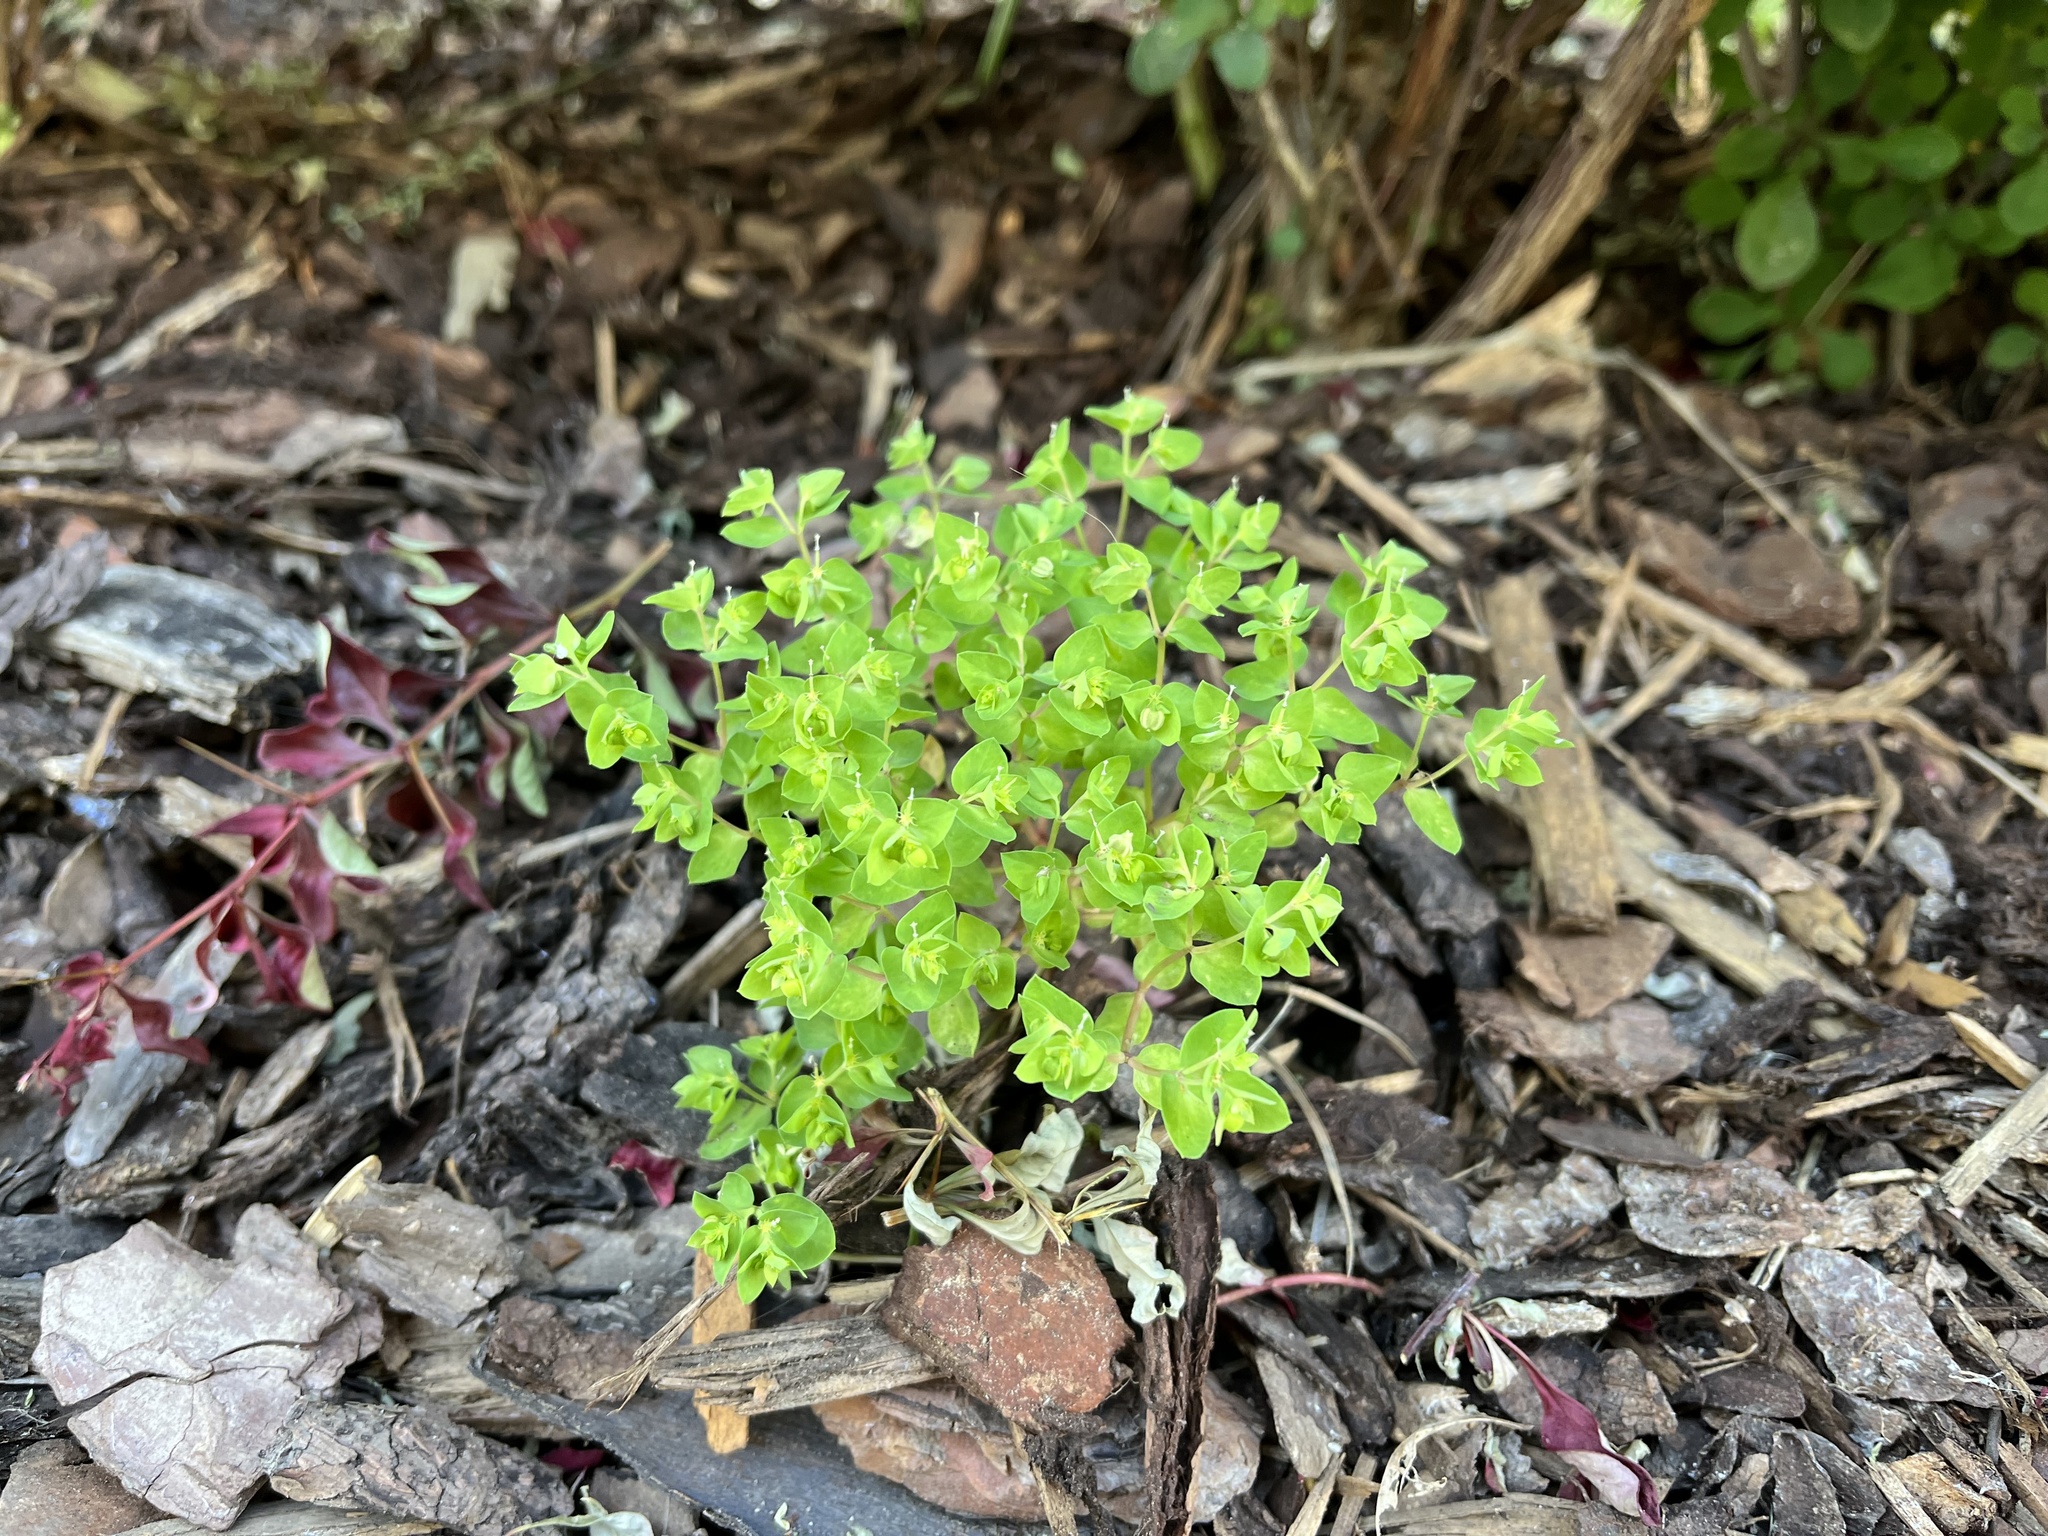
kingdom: Plantae
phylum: Tracheophyta
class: Magnoliopsida
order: Malpighiales
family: Euphorbiaceae
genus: Euphorbia
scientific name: Euphorbia peplus
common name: Petty spurge
